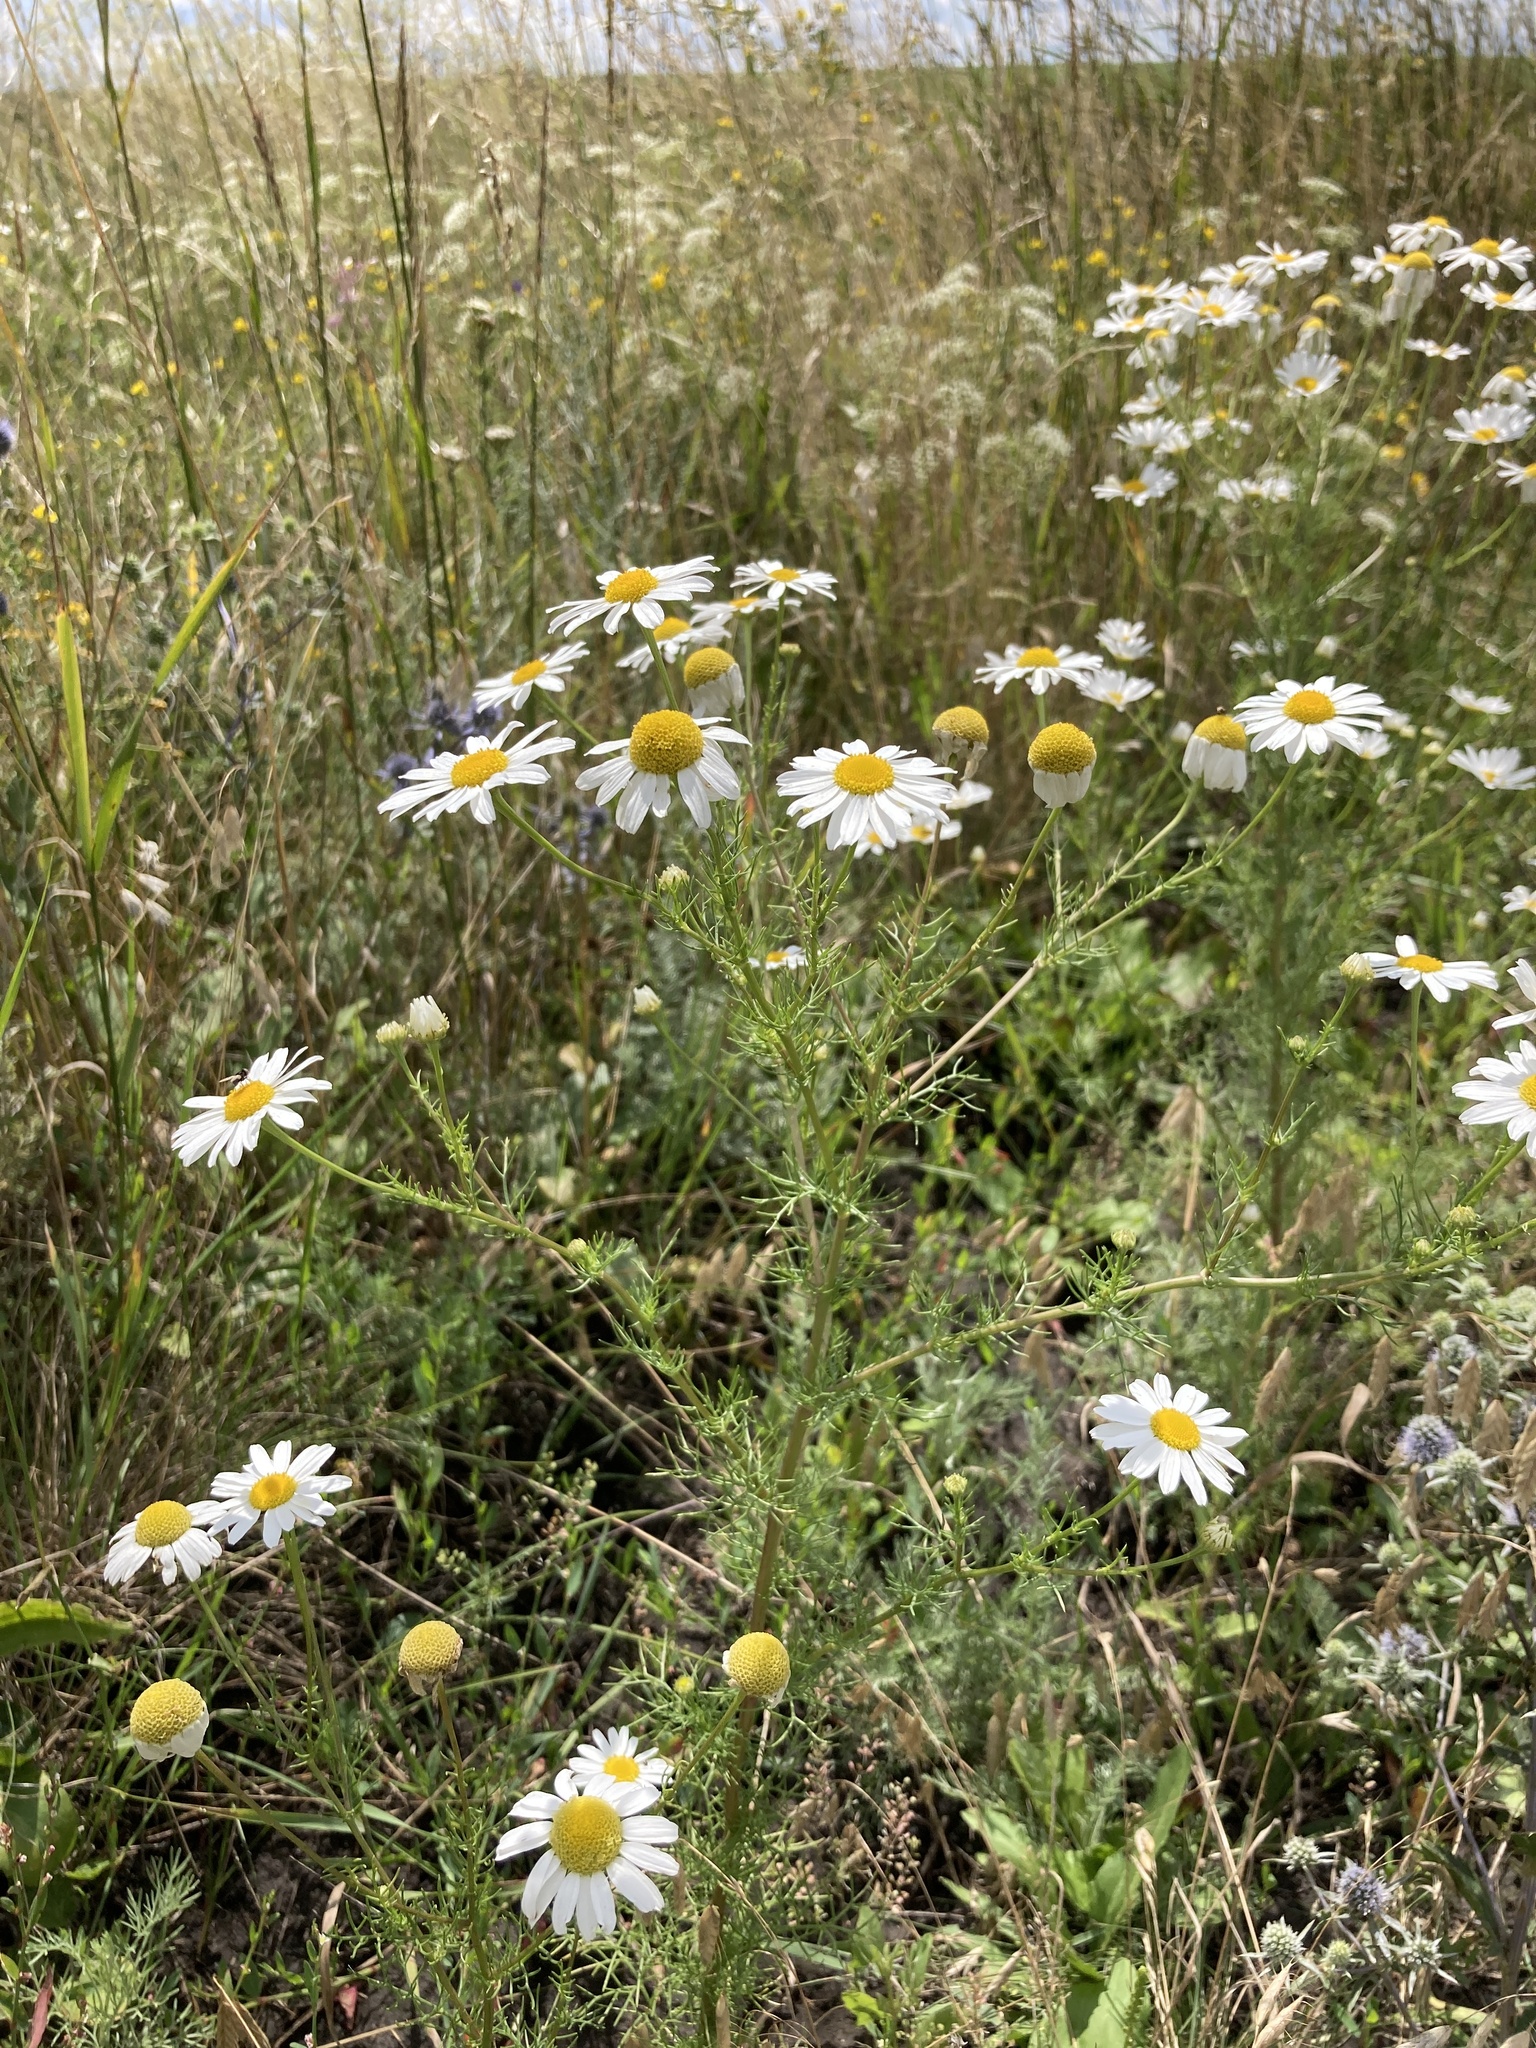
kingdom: Plantae
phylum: Tracheophyta
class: Magnoliopsida
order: Asterales
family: Asteraceae
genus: Tripleurospermum
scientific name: Tripleurospermum inodorum
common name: Scentless mayweed
